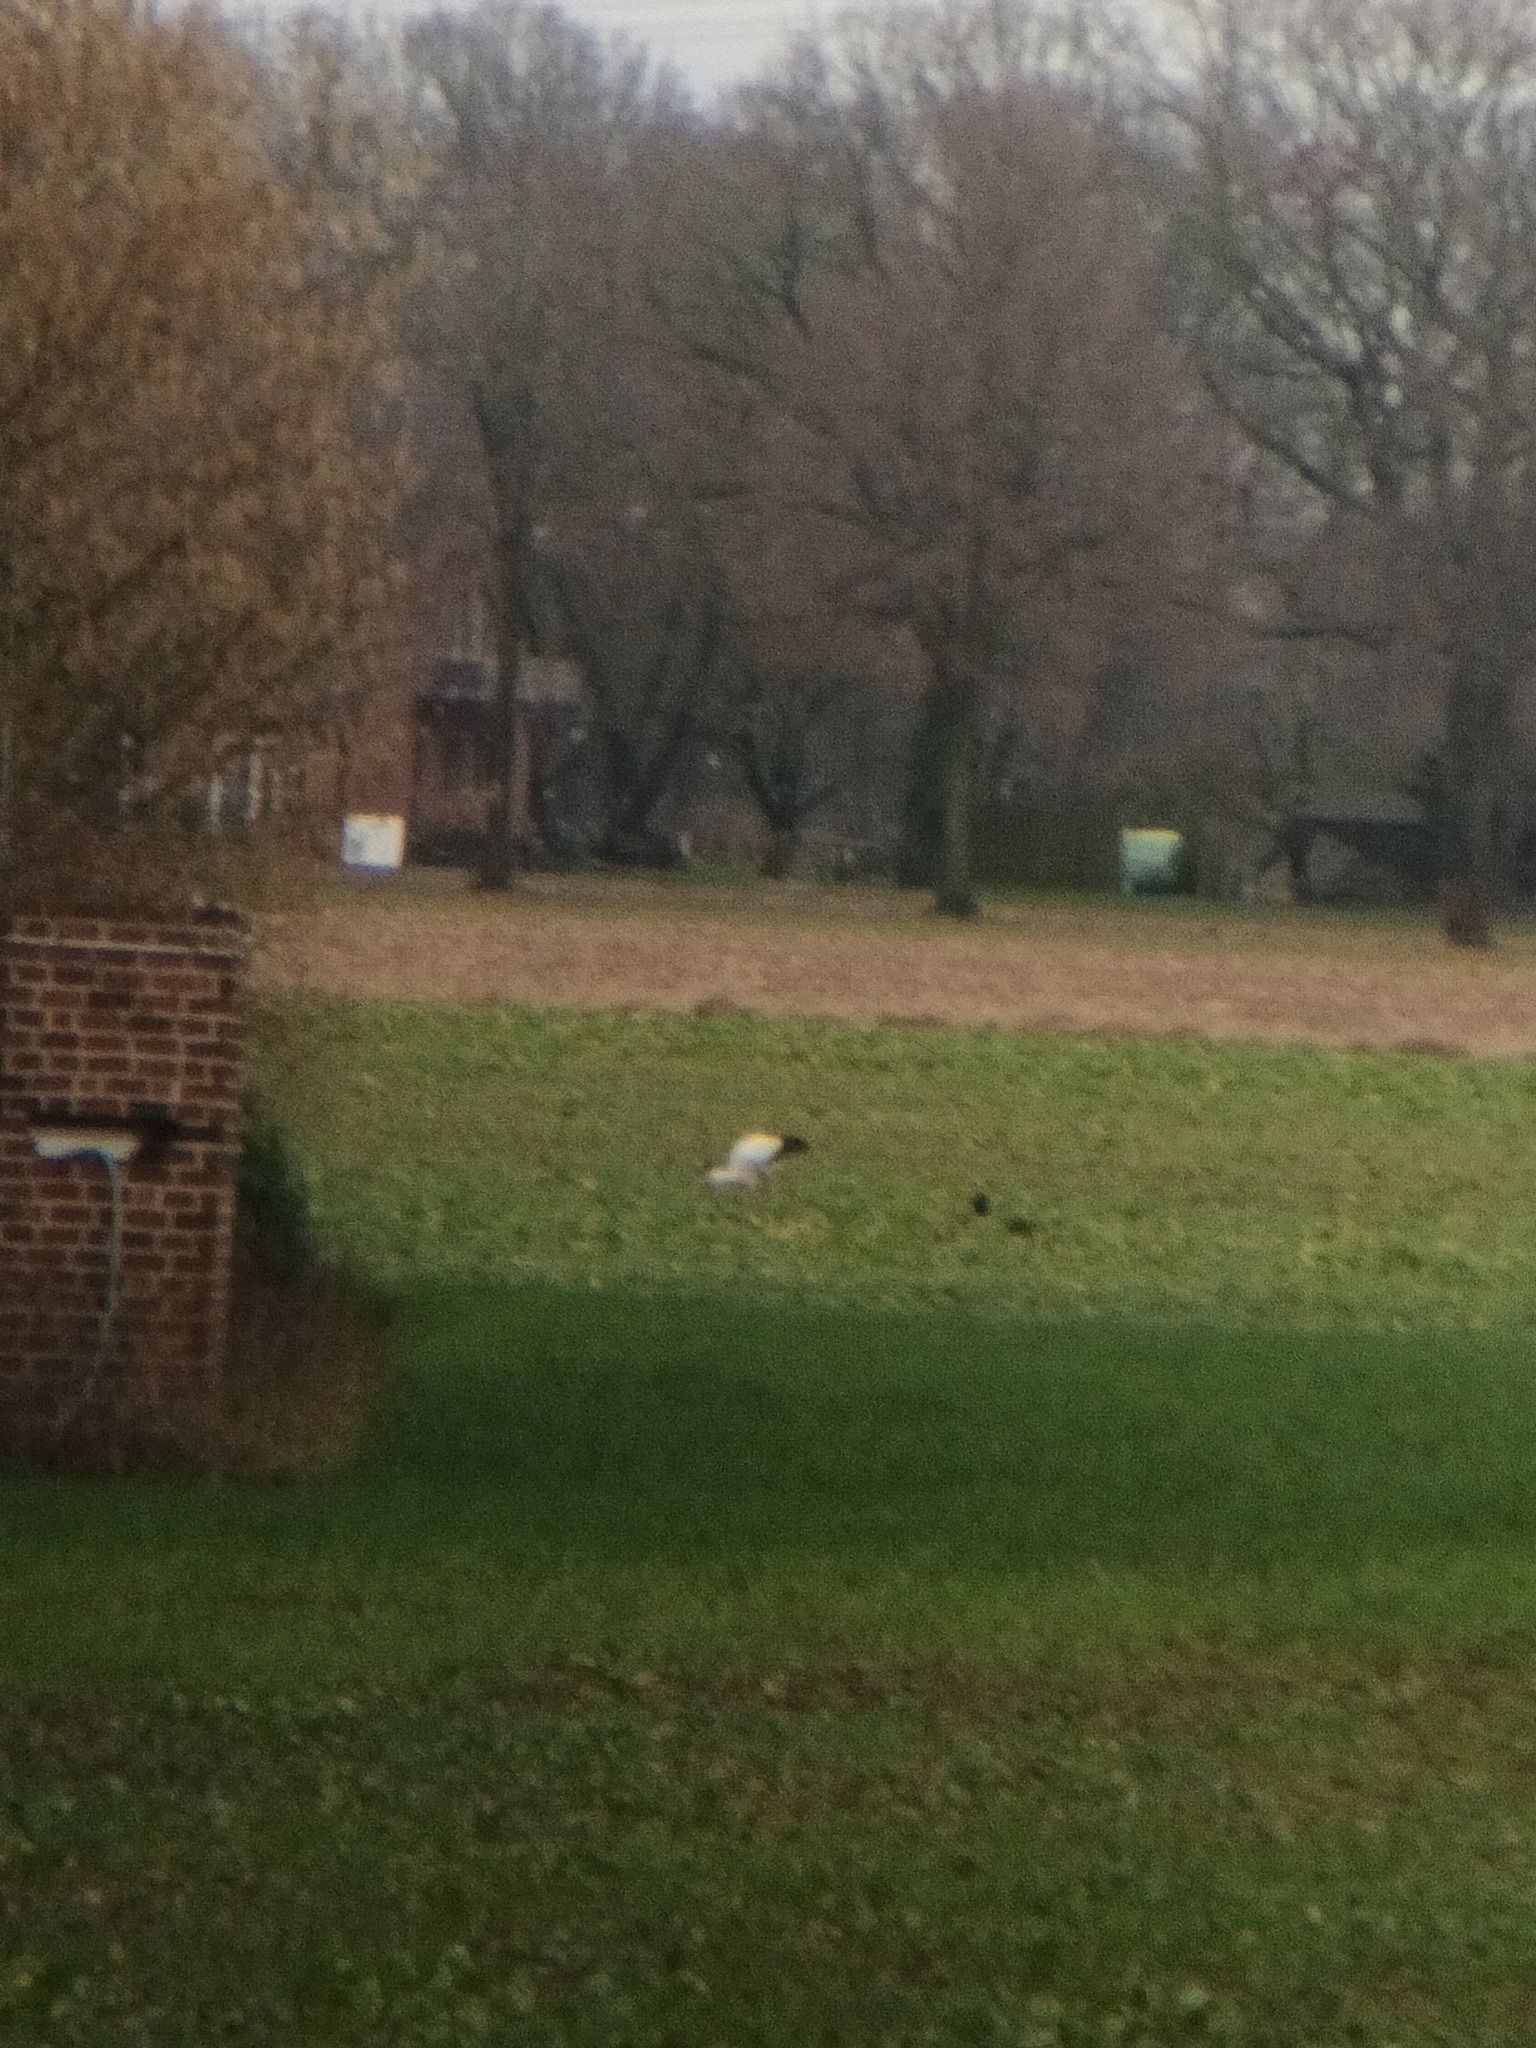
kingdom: Animalia
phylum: Chordata
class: Aves
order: Ciconiiformes
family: Ciconiidae
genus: Ciconia
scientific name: Ciconia ciconia
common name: White stork
